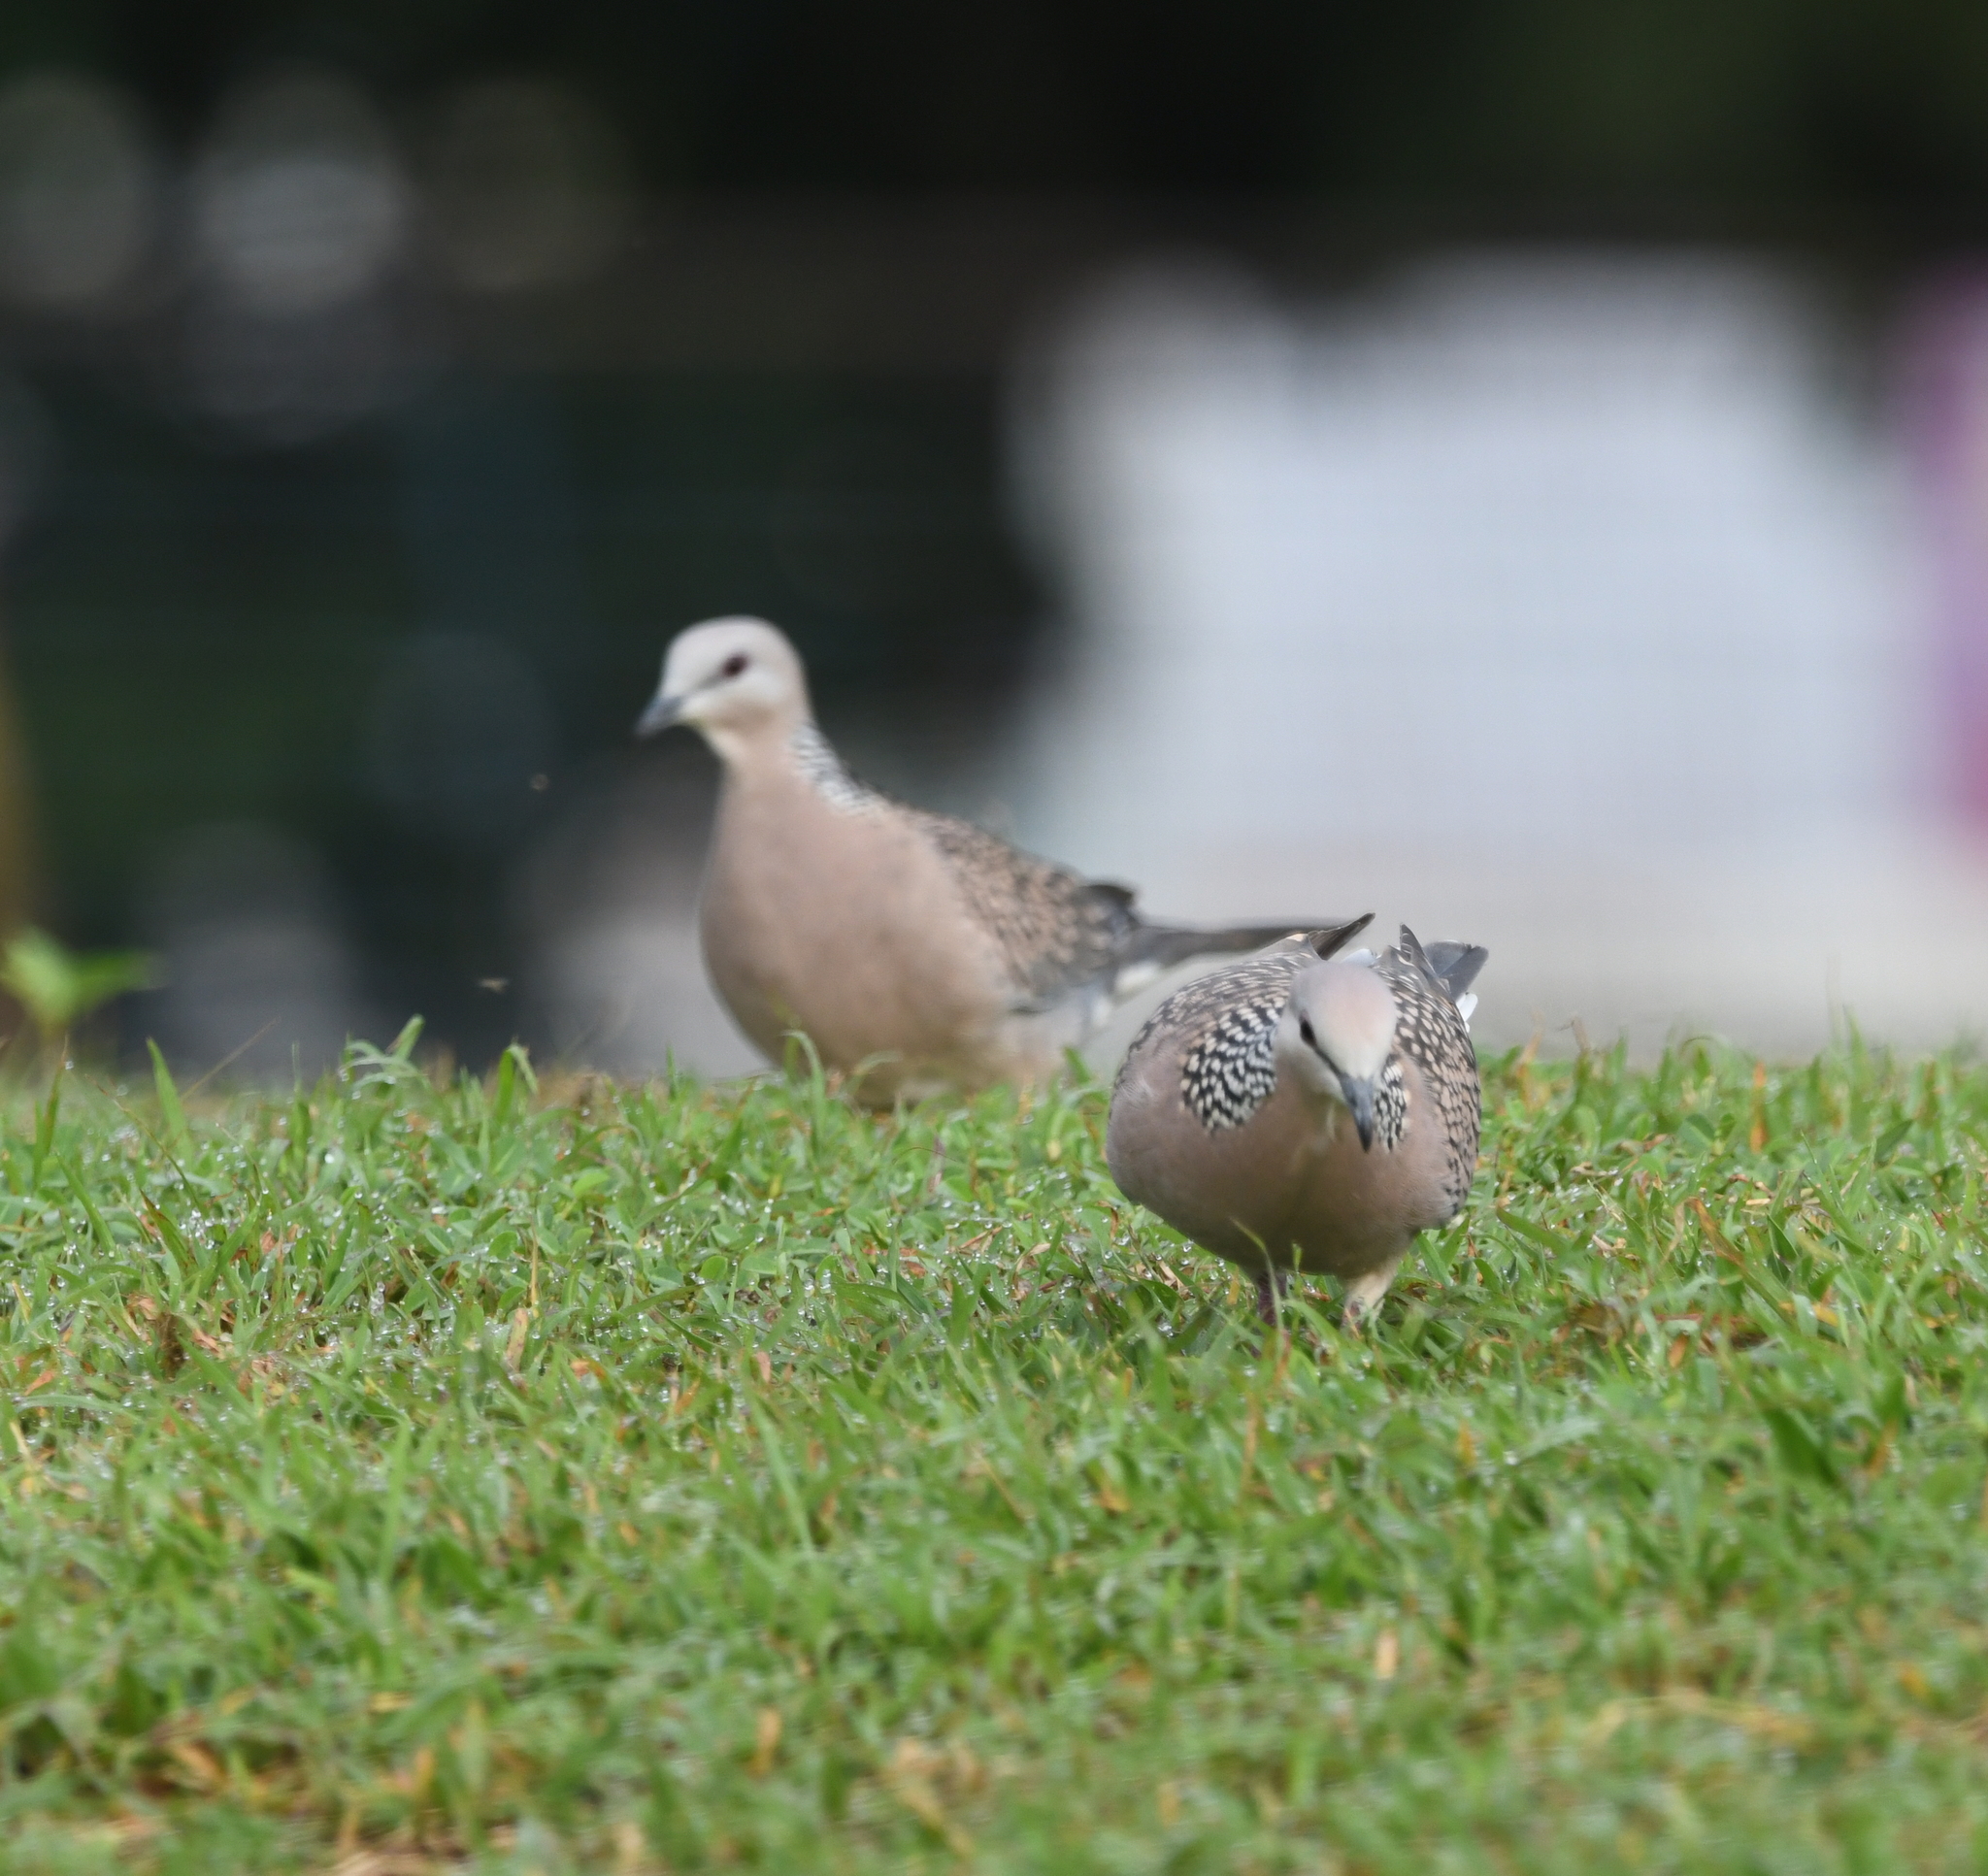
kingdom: Animalia
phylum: Chordata
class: Aves
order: Columbiformes
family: Columbidae
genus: Spilopelia
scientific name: Spilopelia chinensis
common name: Spotted dove
